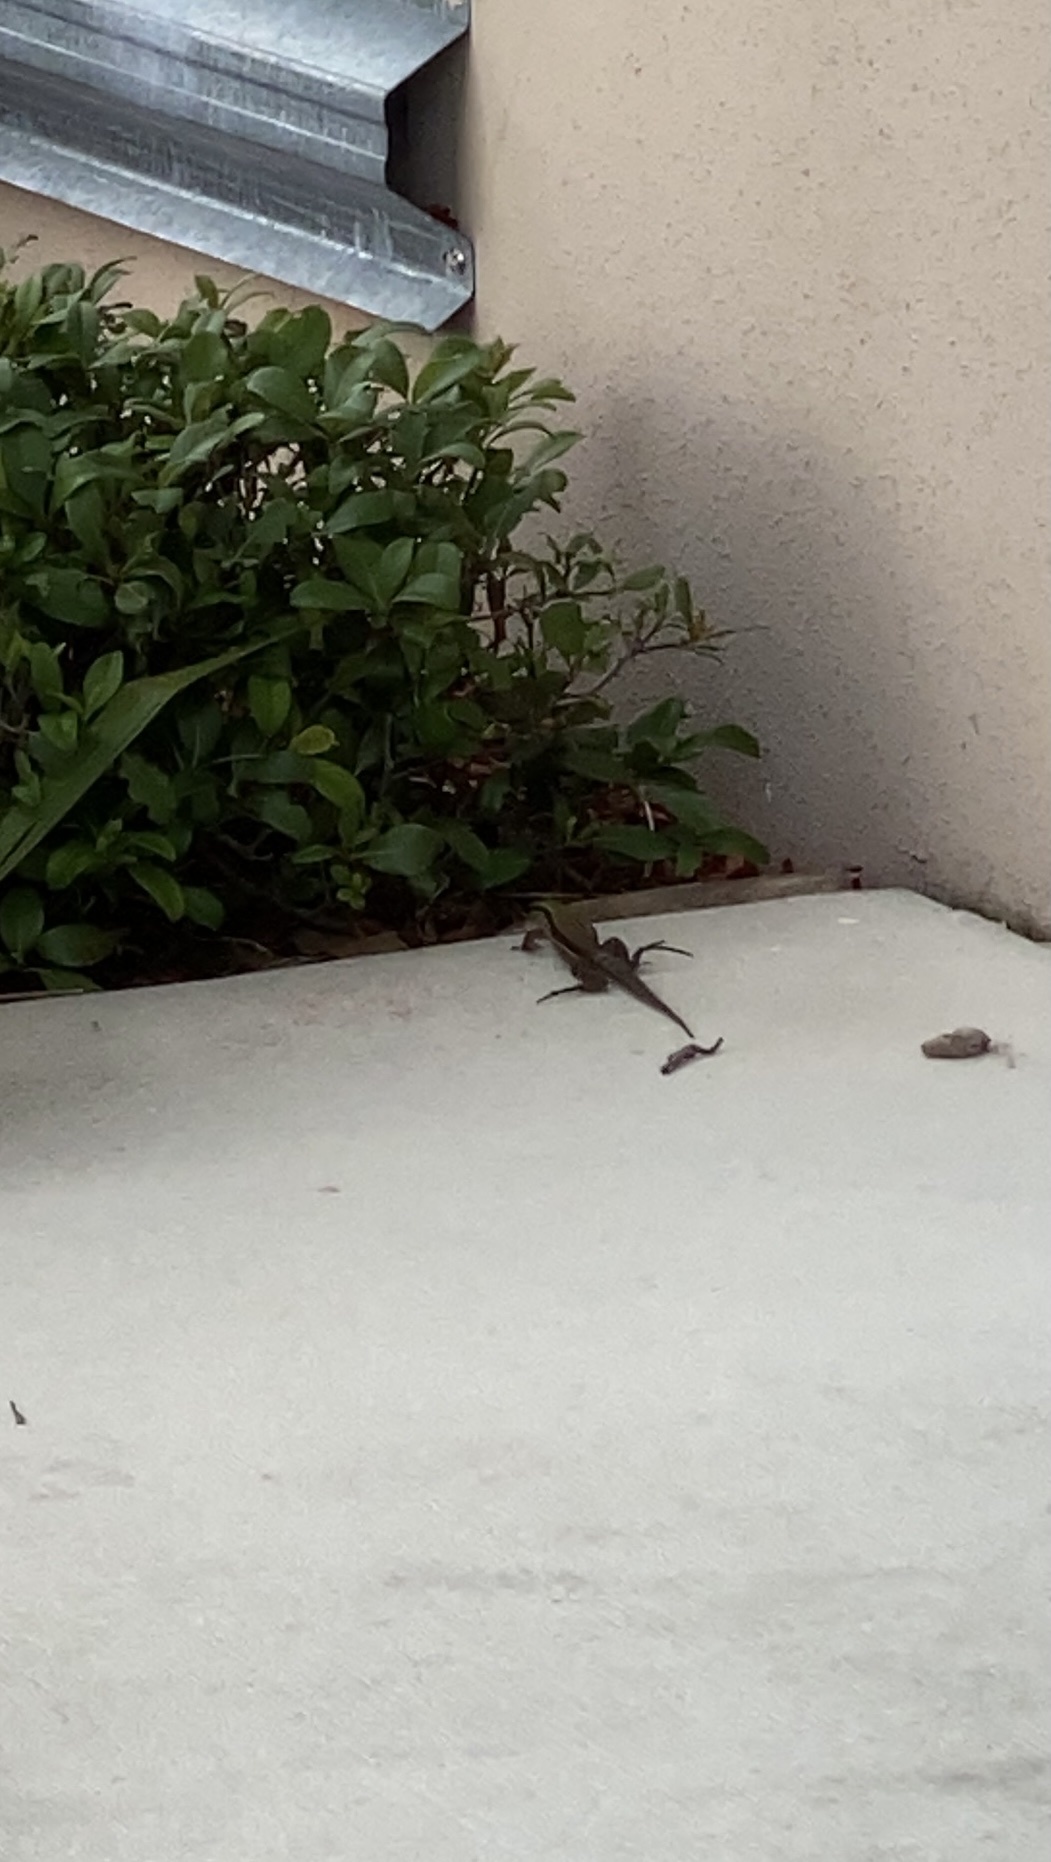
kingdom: Animalia
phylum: Chordata
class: Squamata
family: Teiidae
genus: Ameiva
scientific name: Ameiva ameiva
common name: Giant ameiva
